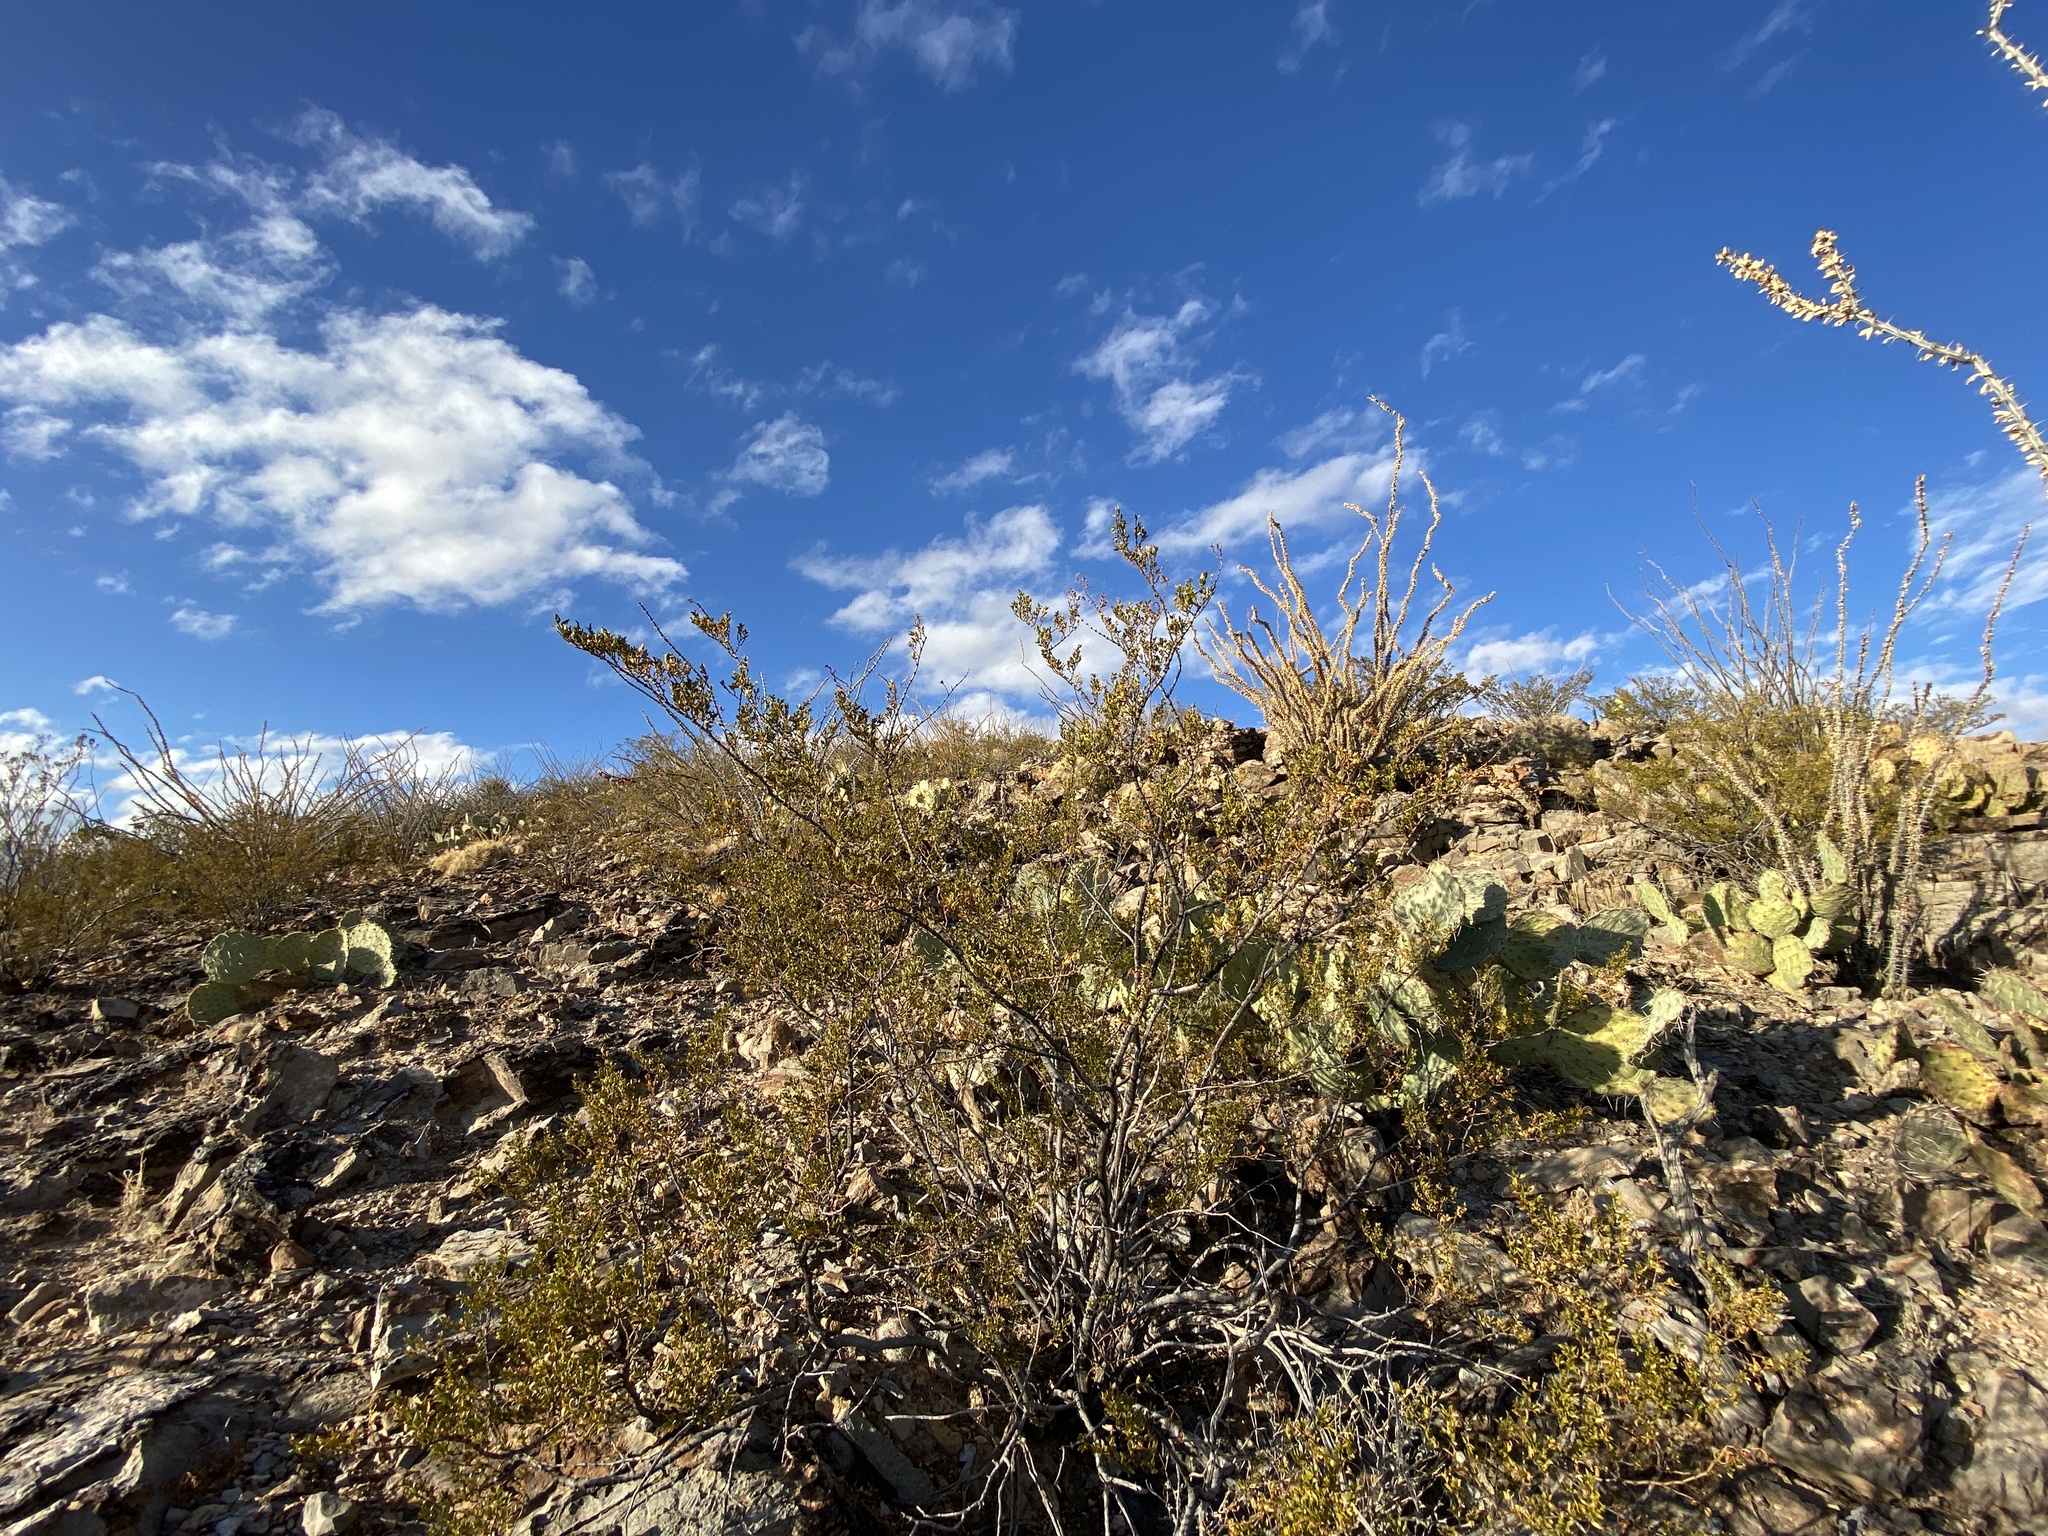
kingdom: Plantae
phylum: Tracheophyta
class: Magnoliopsida
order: Zygophyllales
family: Zygophyllaceae
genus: Larrea
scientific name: Larrea tridentata
